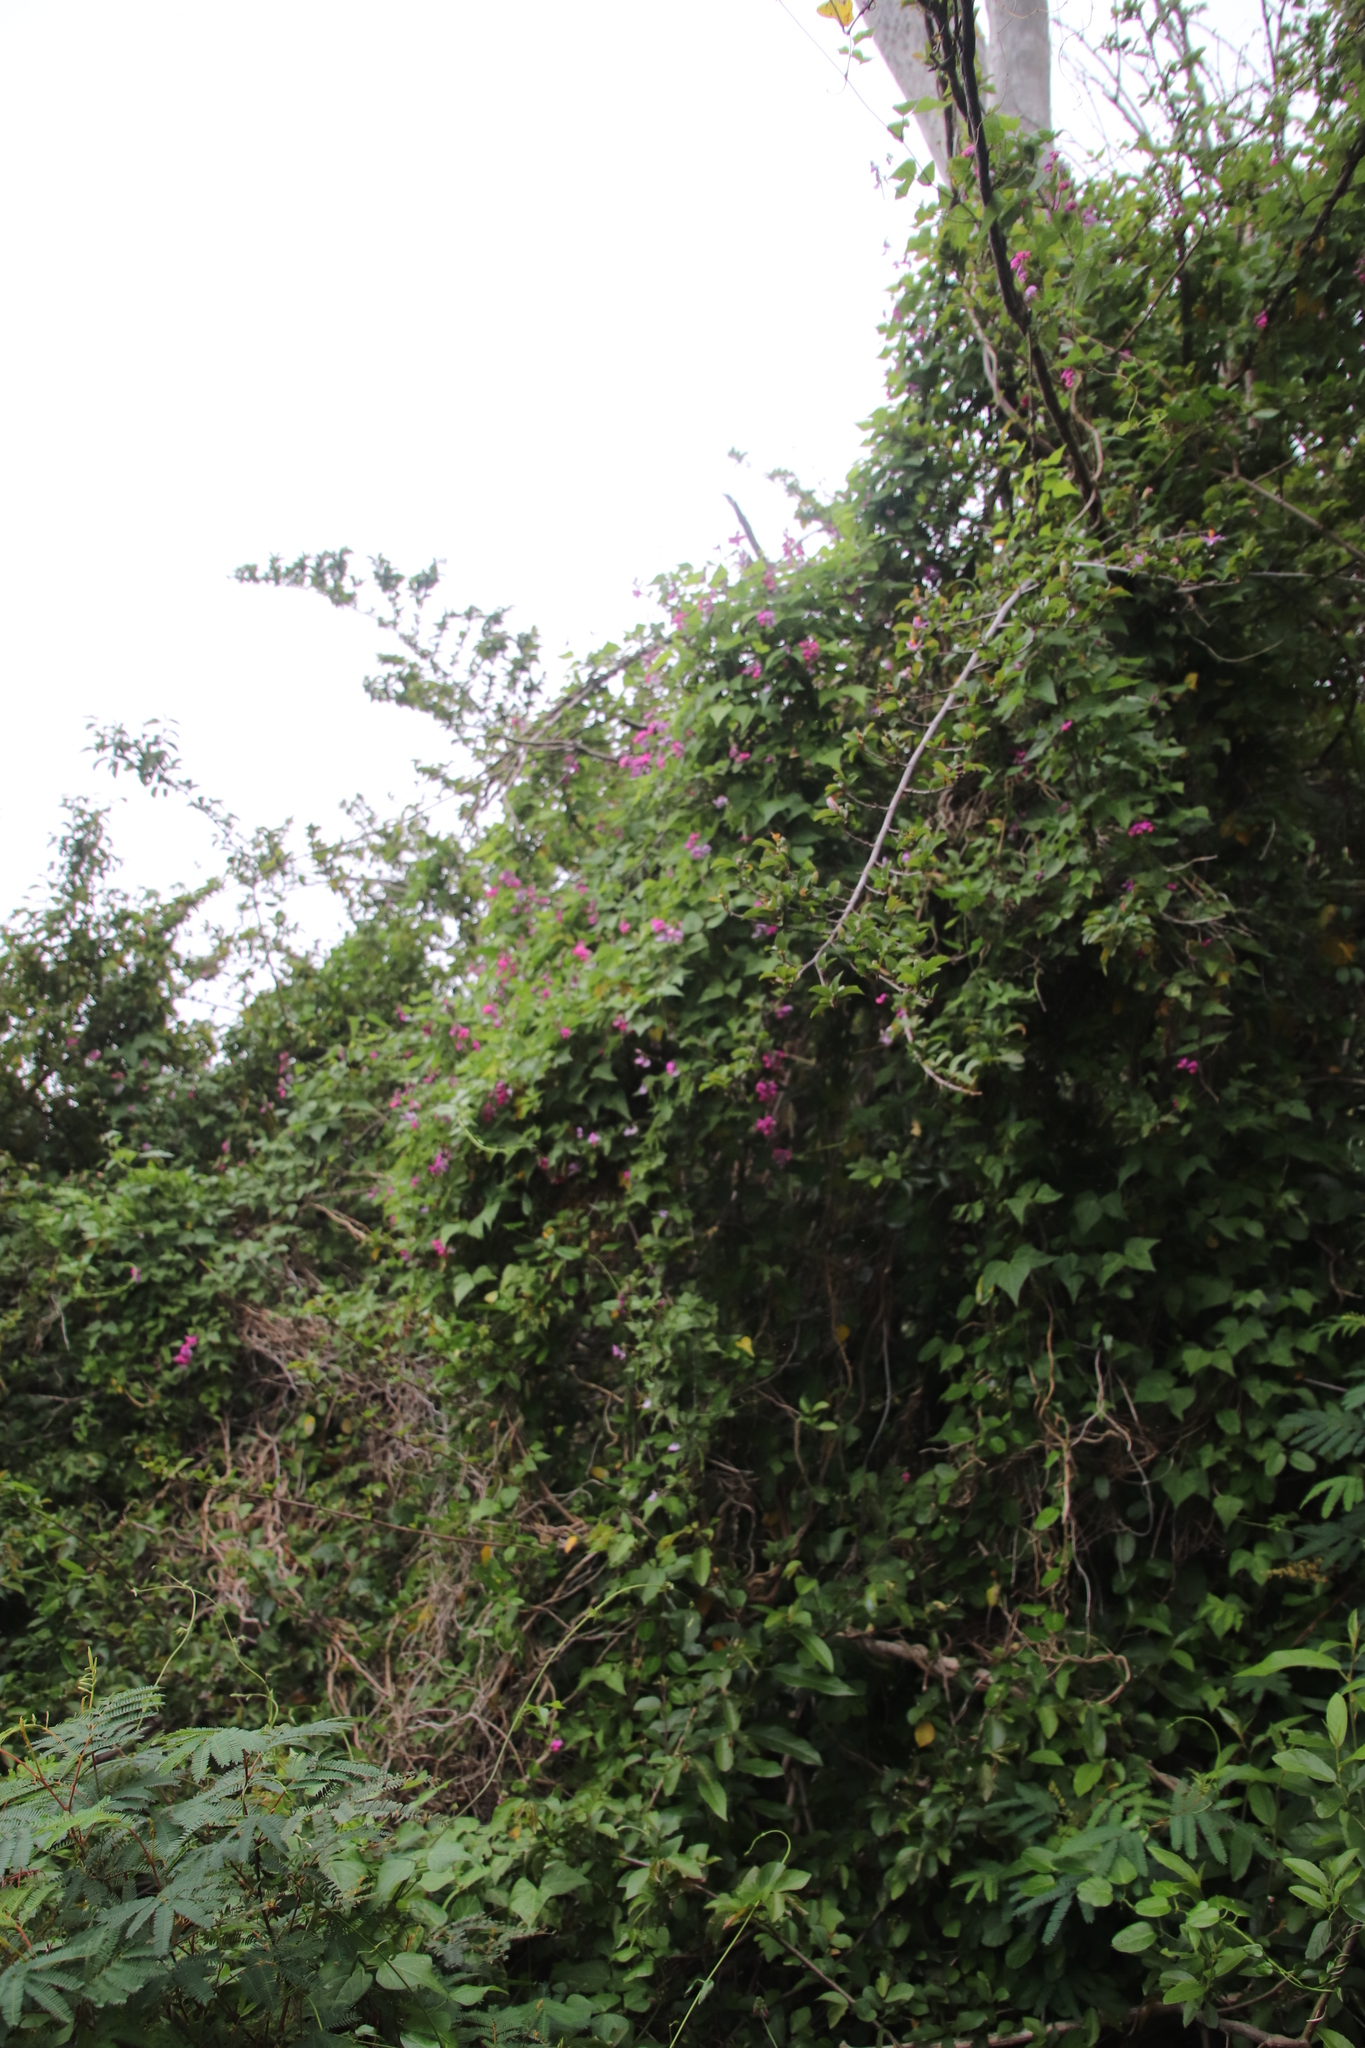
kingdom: Plantae
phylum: Tracheophyta
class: Magnoliopsida
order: Fabales
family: Fabaceae
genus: Dipogon
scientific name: Dipogon lignosus
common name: Okie bean
